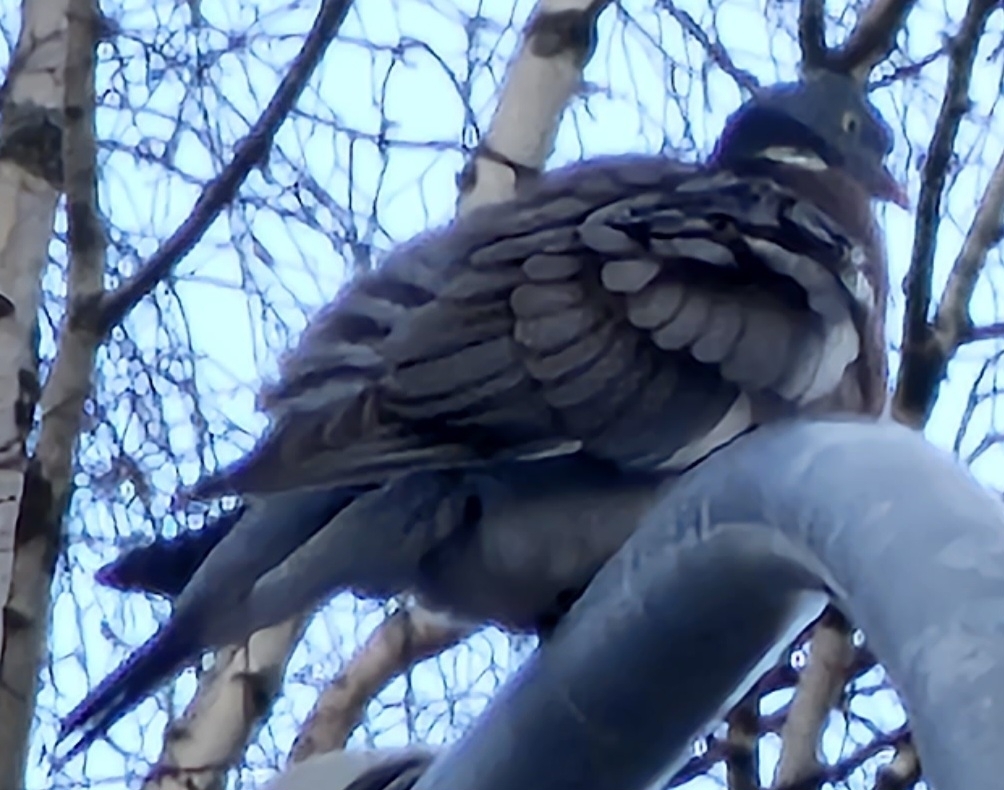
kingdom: Animalia
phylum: Chordata
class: Aves
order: Columbiformes
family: Columbidae
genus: Columba
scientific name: Columba palumbus
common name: Common wood pigeon
